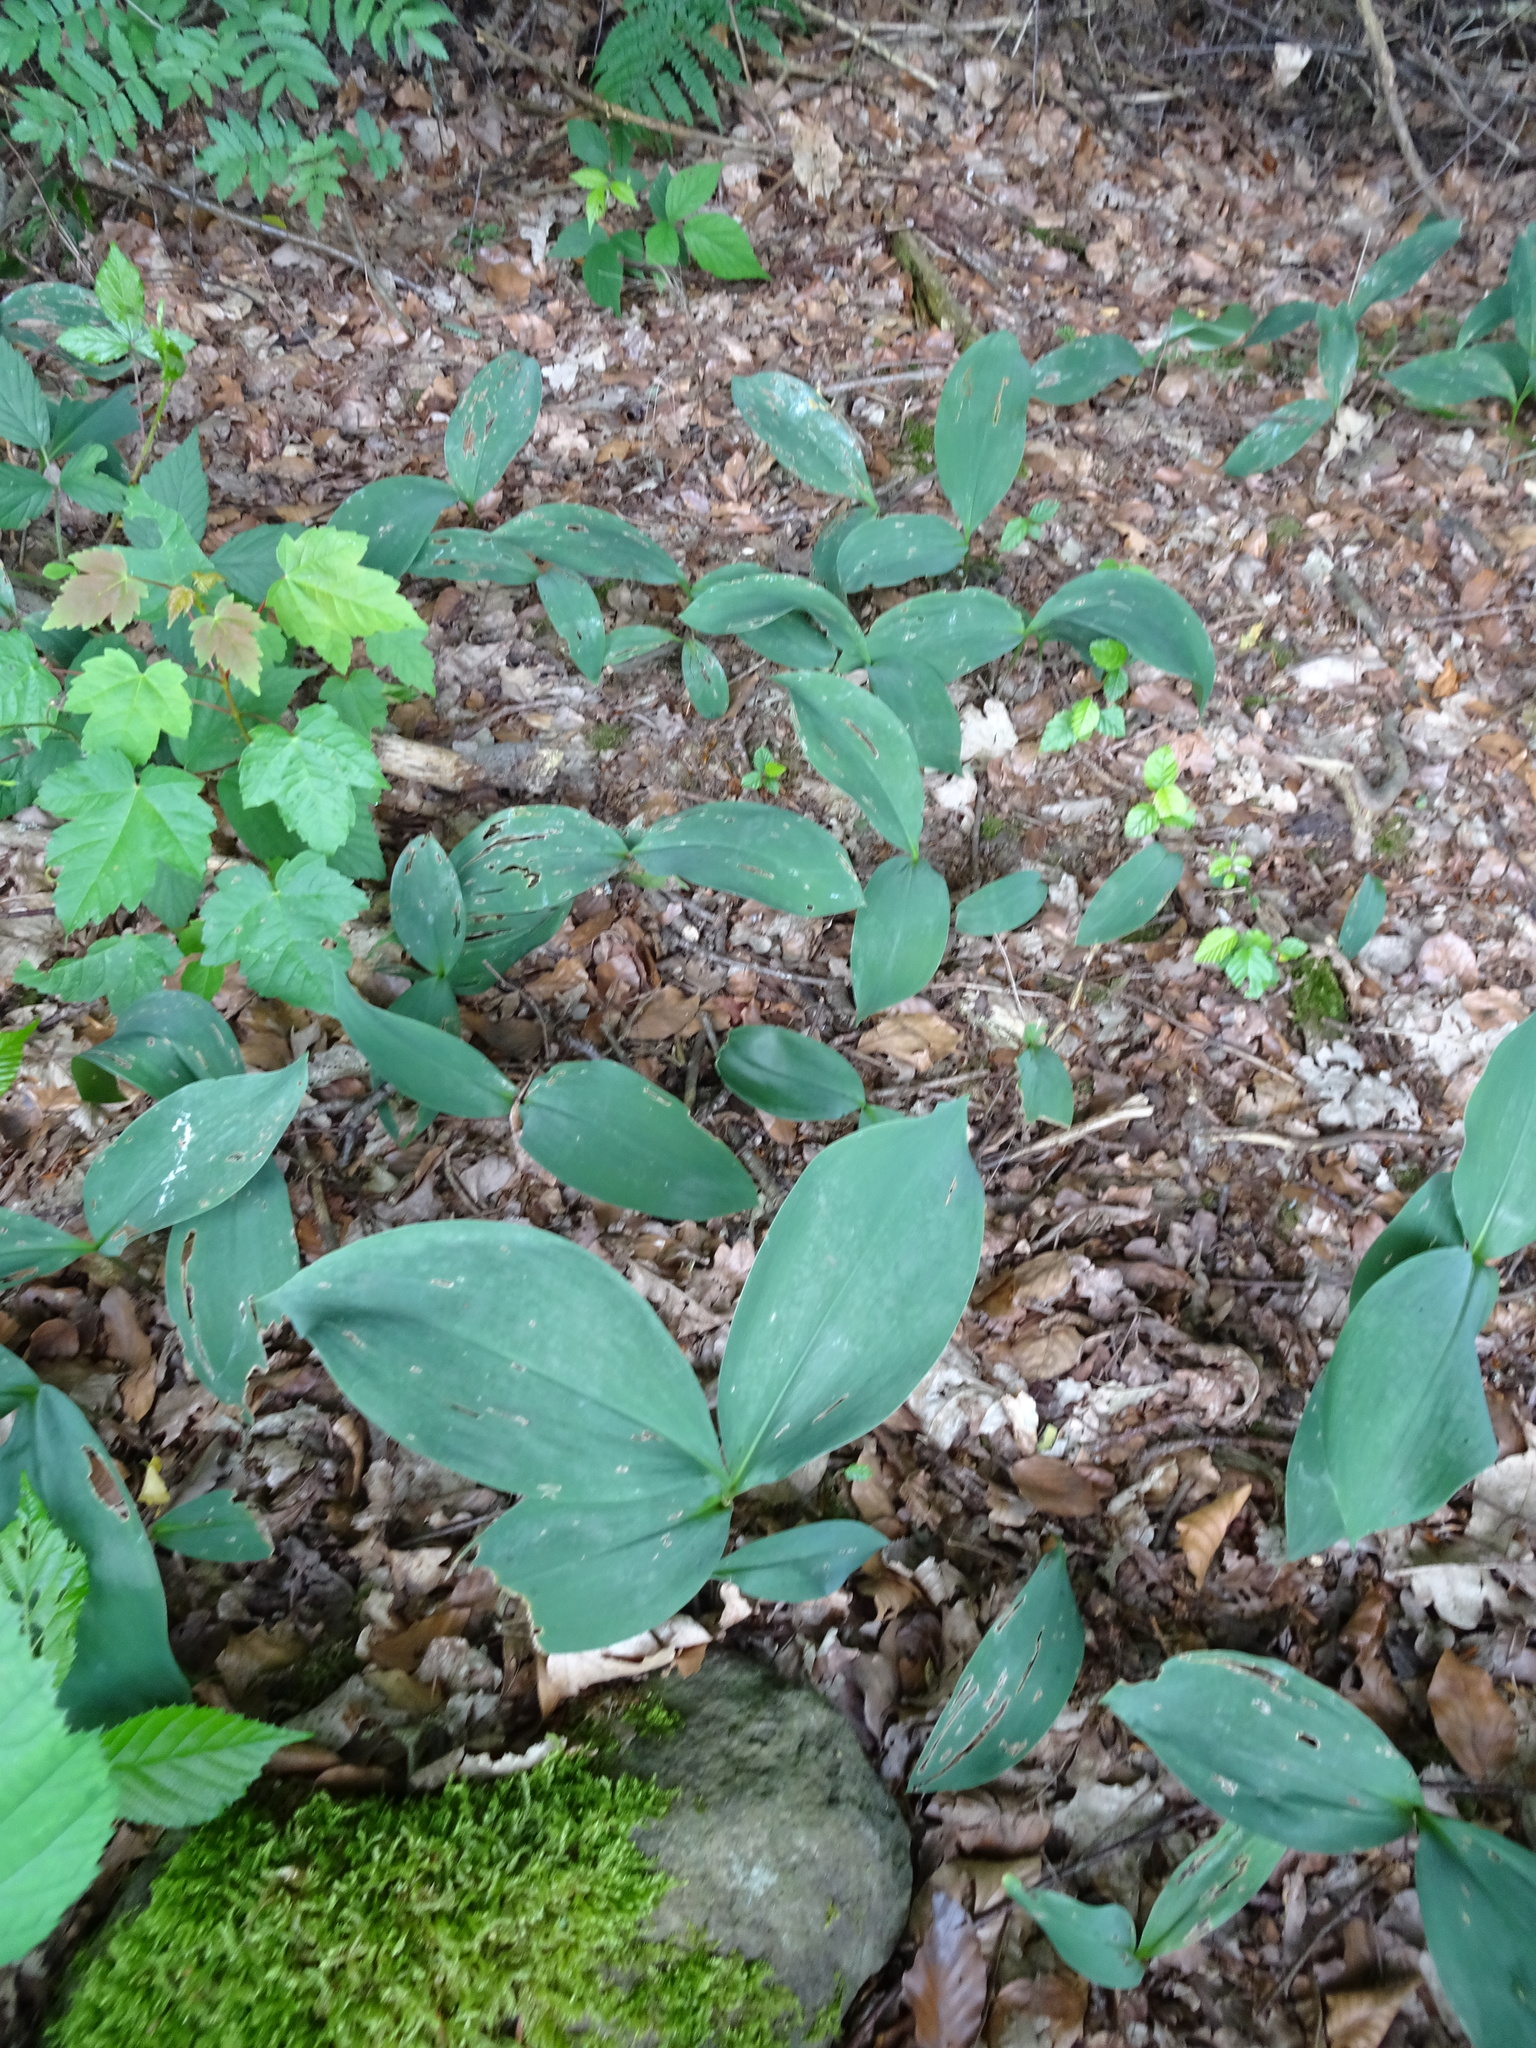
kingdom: Plantae
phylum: Tracheophyta
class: Liliopsida
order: Asparagales
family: Asparagaceae
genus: Convallaria
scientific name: Convallaria majalis
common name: Lily-of-the-valley
